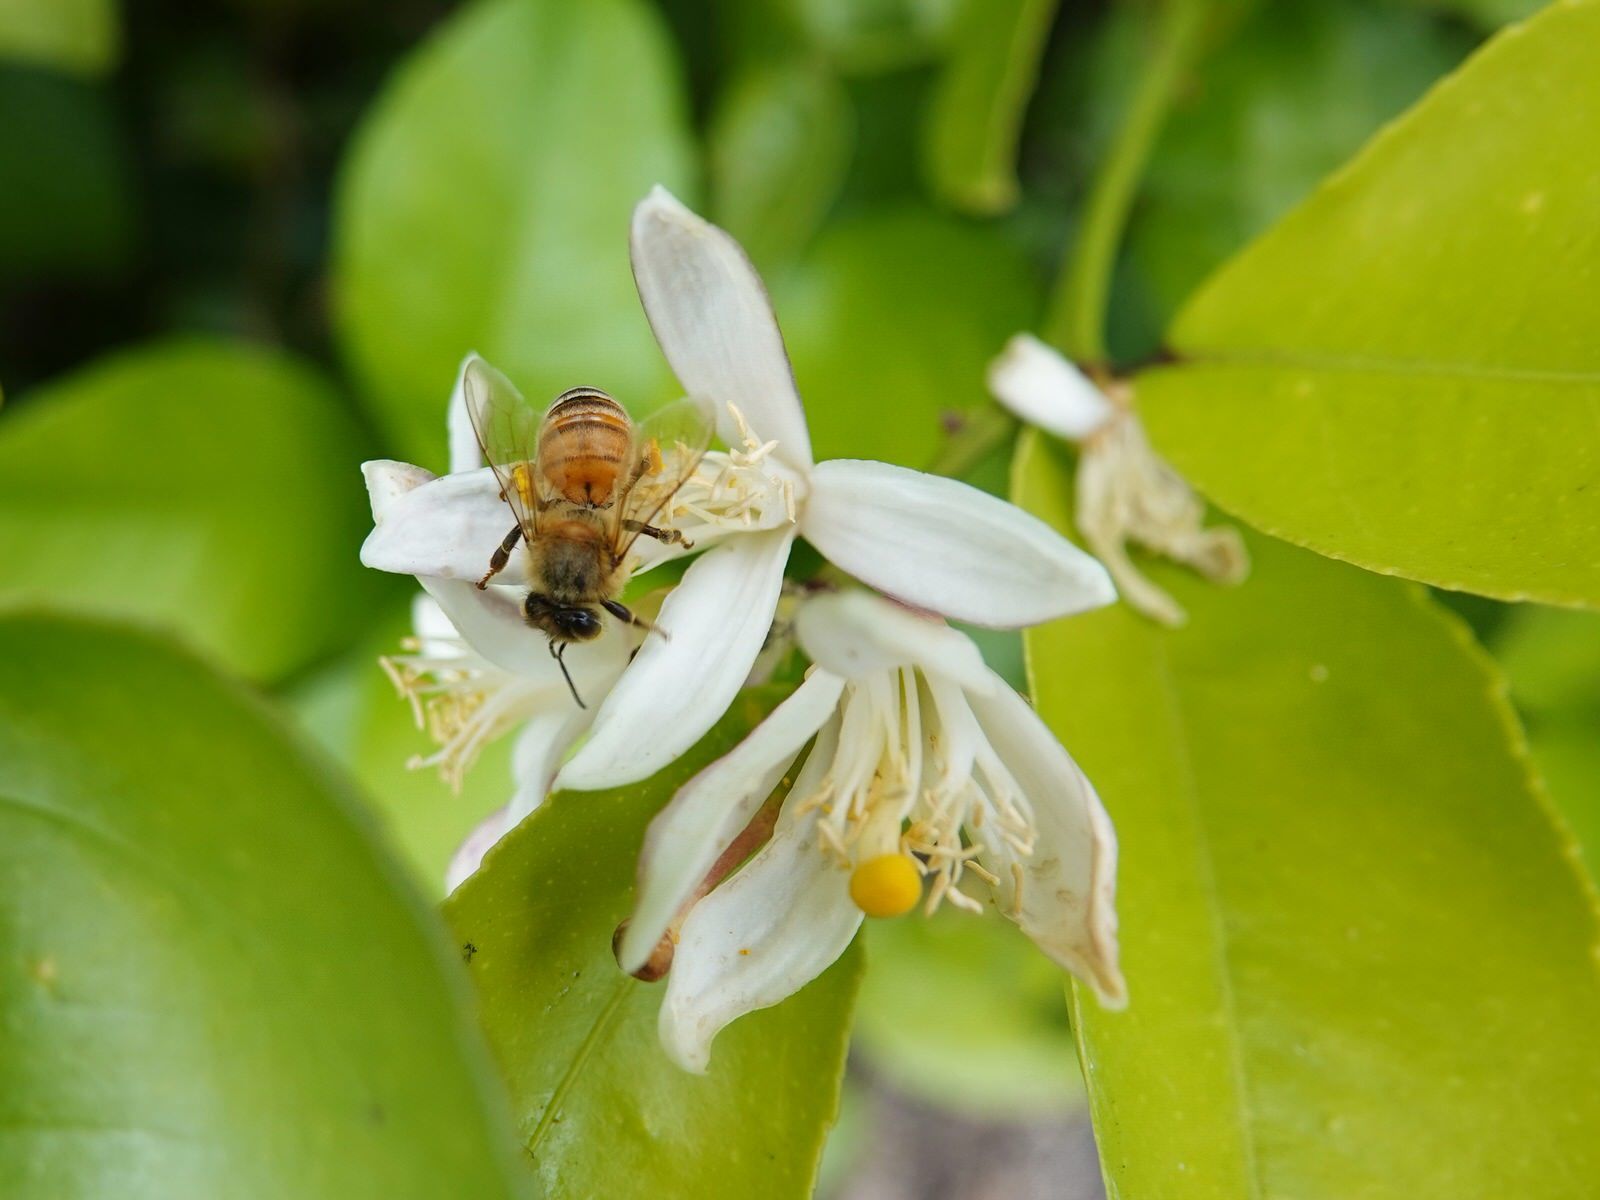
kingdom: Animalia
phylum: Arthropoda
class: Insecta
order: Hymenoptera
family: Apidae
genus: Apis
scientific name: Apis mellifera
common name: Honey bee
